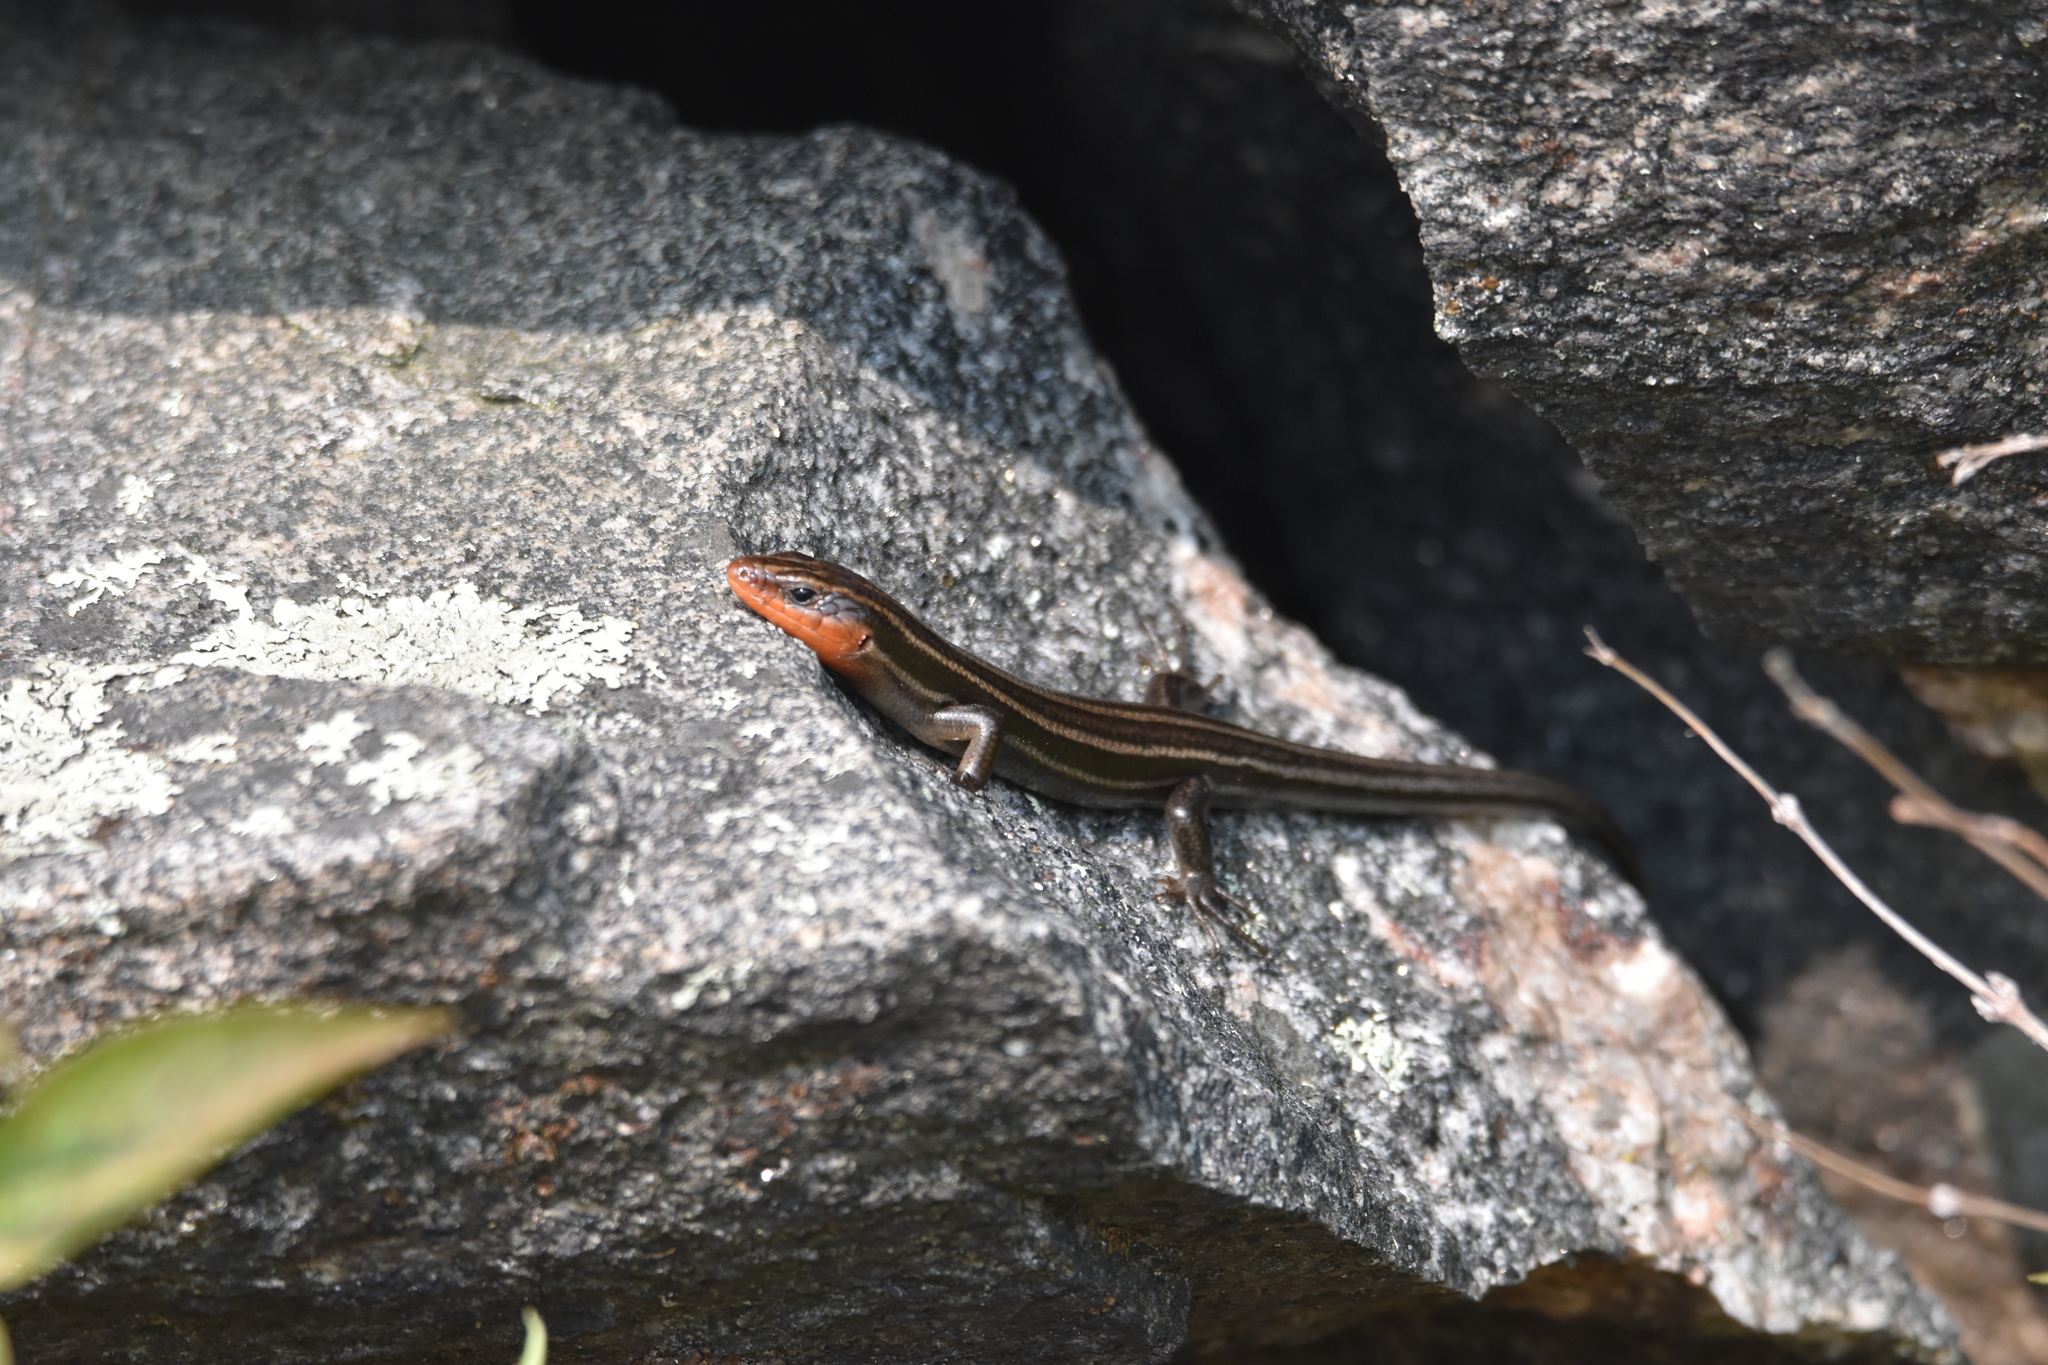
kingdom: Animalia
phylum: Chordata
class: Squamata
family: Scincidae
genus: Plestiodon
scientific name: Plestiodon fasciatus
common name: Five-lined skink
